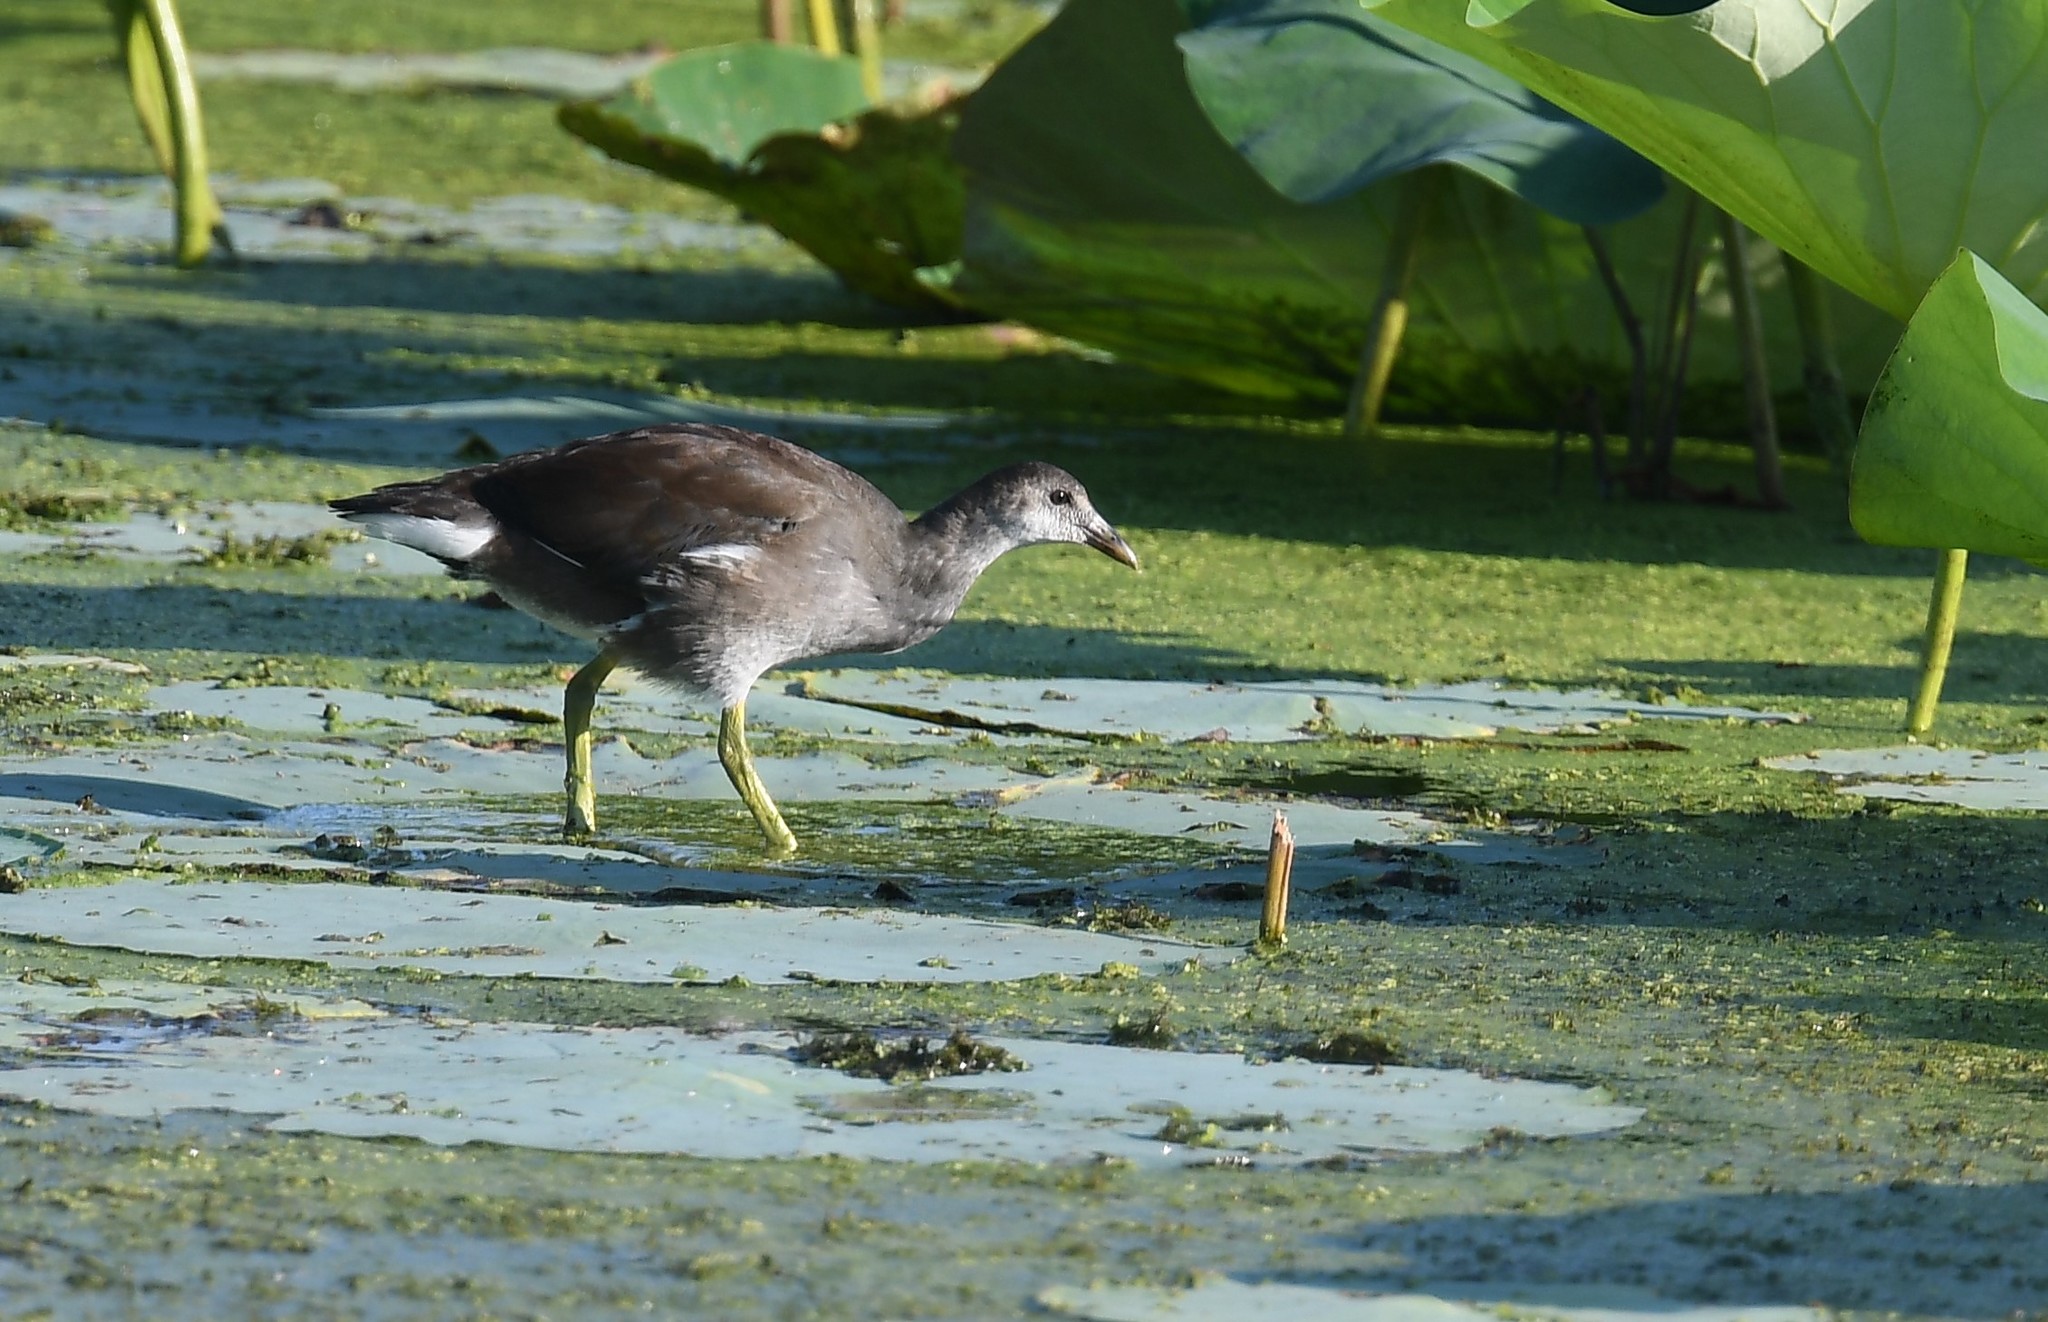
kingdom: Animalia
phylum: Chordata
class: Aves
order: Gruiformes
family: Rallidae
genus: Gallinula
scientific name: Gallinula chloropus
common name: Common moorhen
